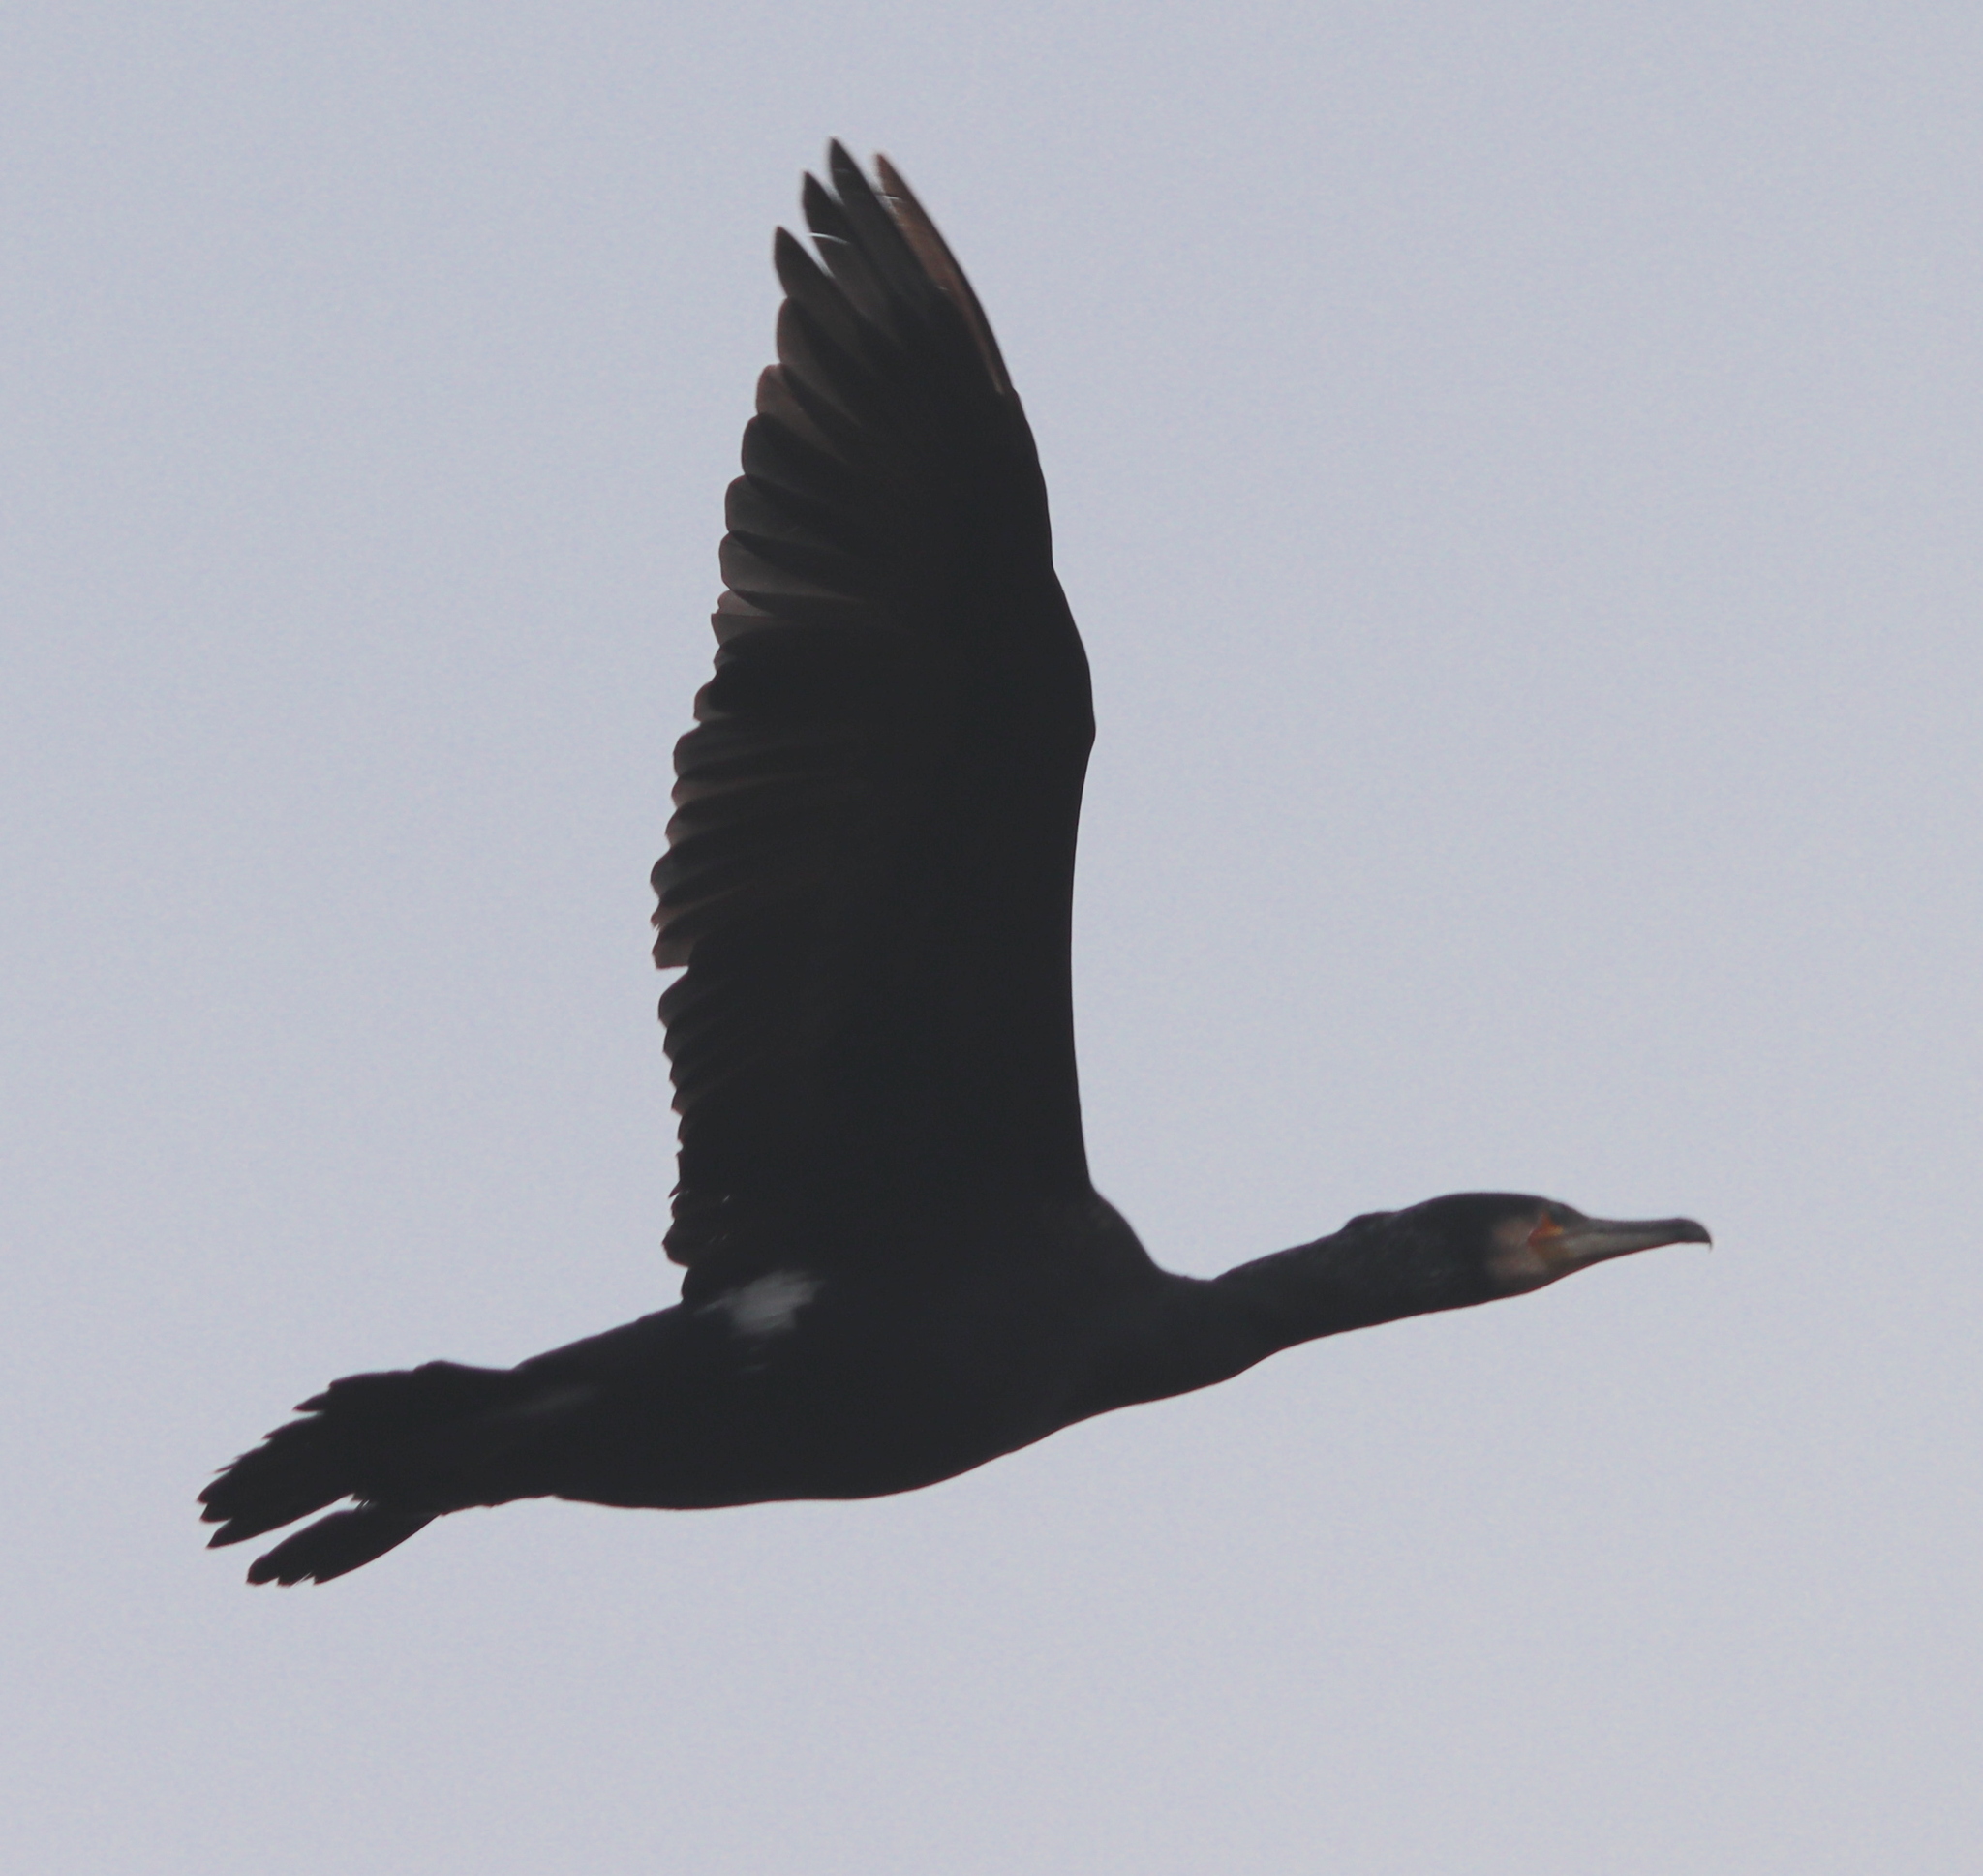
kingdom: Animalia
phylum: Chordata
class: Aves
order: Suliformes
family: Phalacrocoracidae
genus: Phalacrocorax
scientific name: Phalacrocorax carbo
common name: Great cormorant
